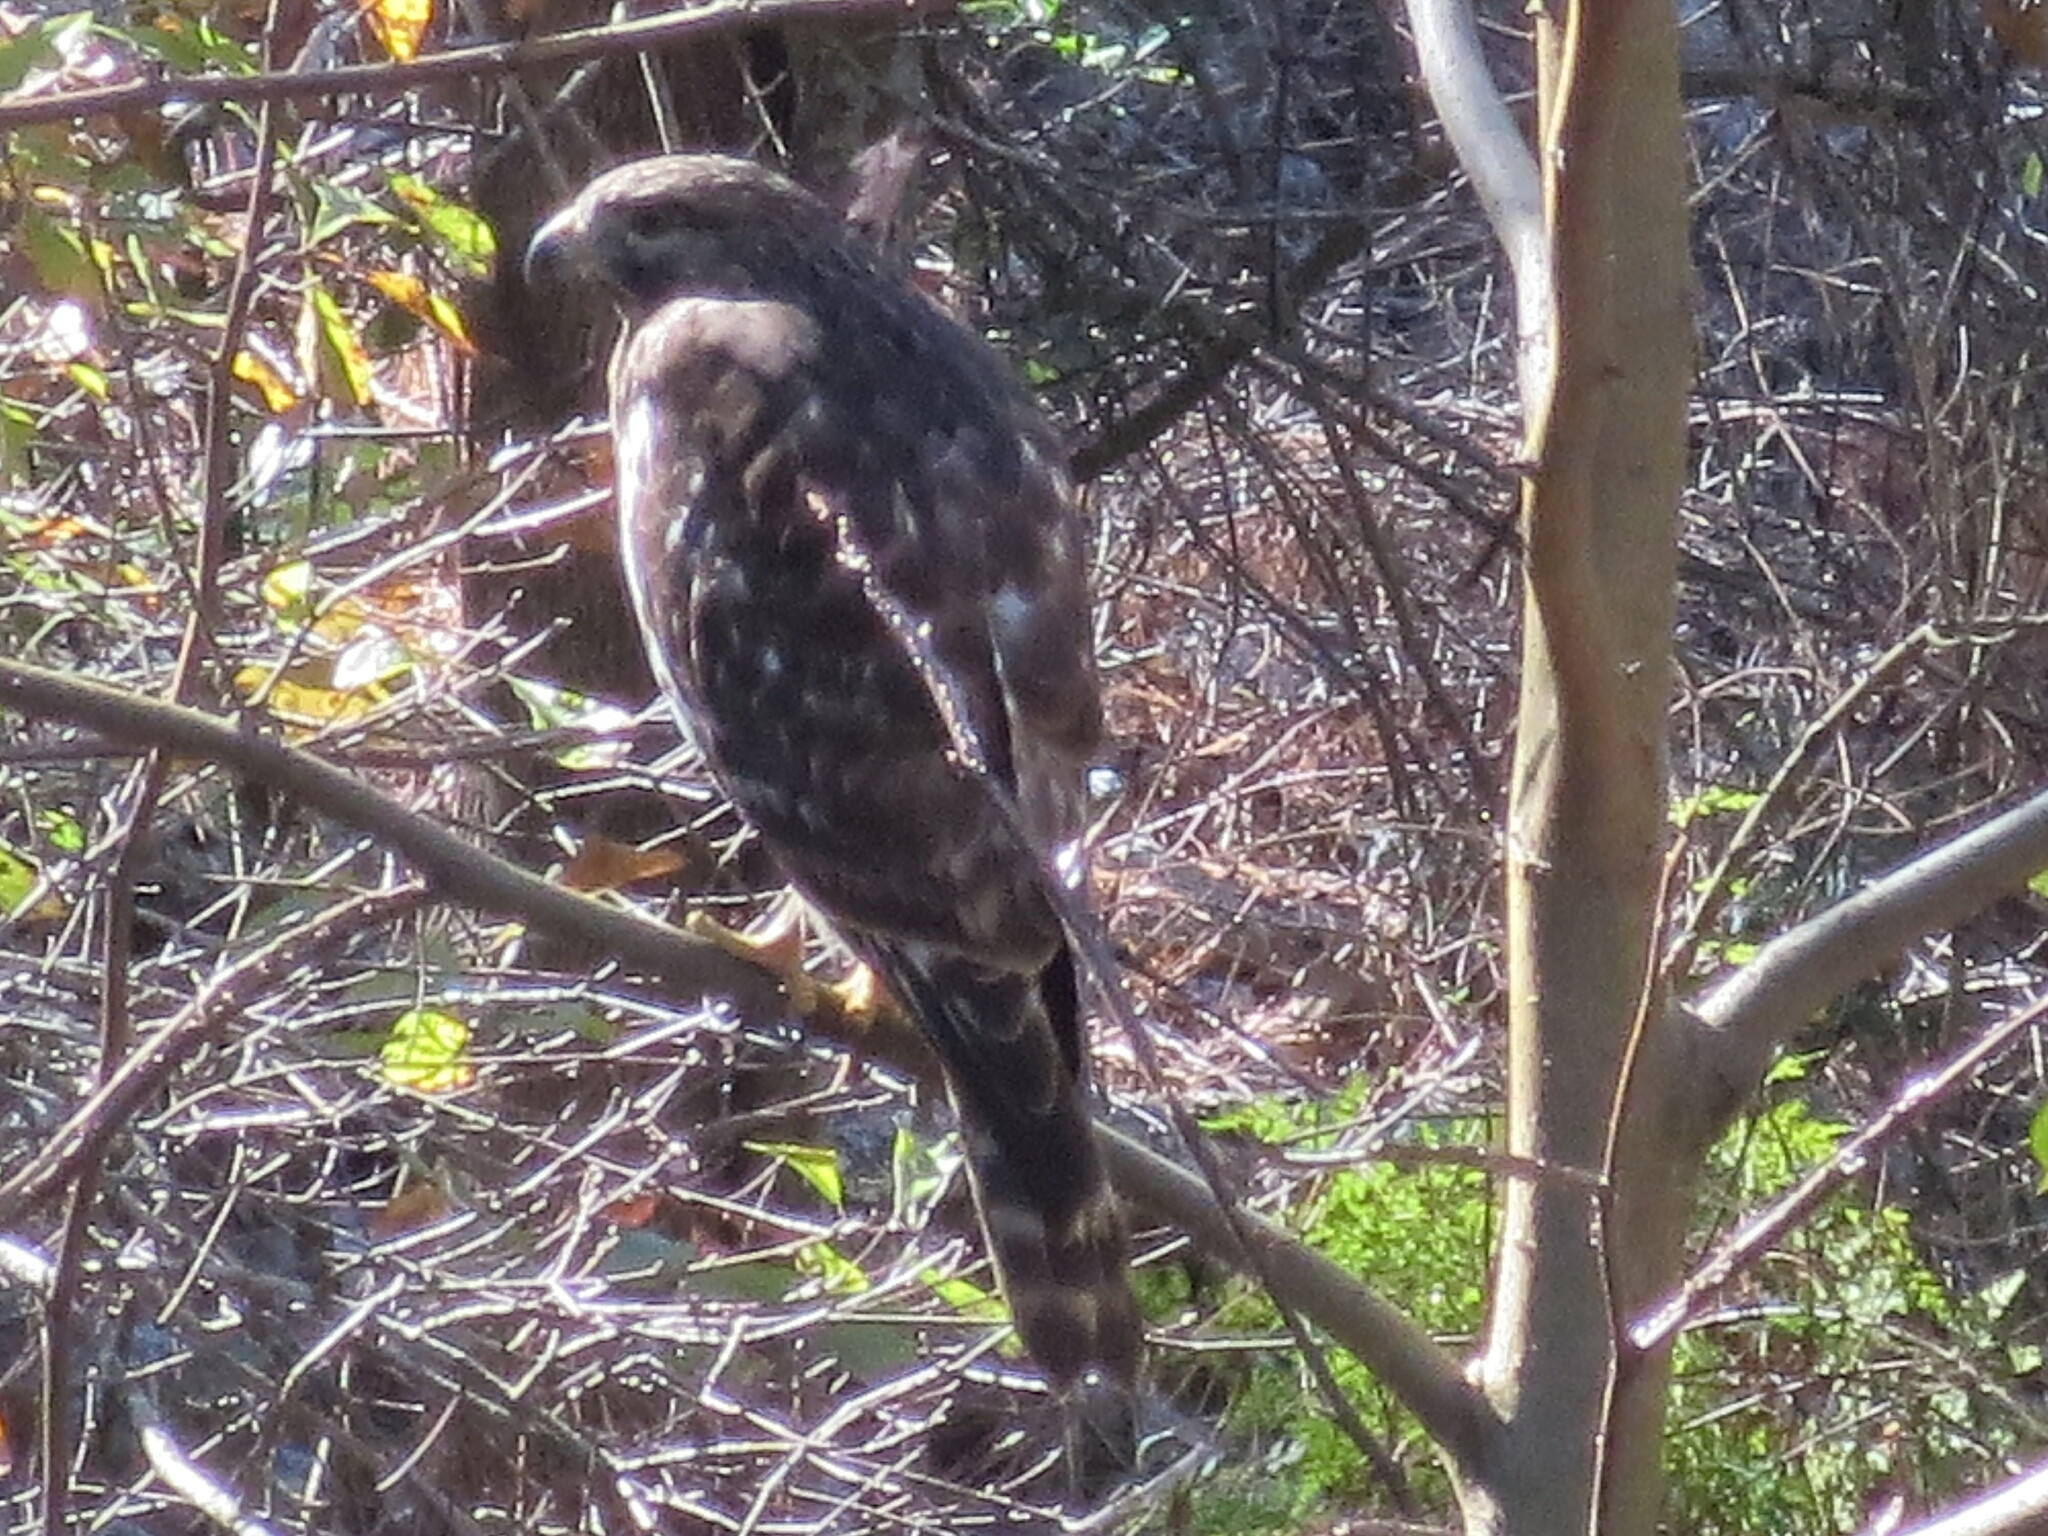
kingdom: Animalia
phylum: Chordata
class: Aves
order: Accipitriformes
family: Accipitridae
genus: Buteo
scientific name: Buteo lineatus
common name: Red-shouldered hawk
